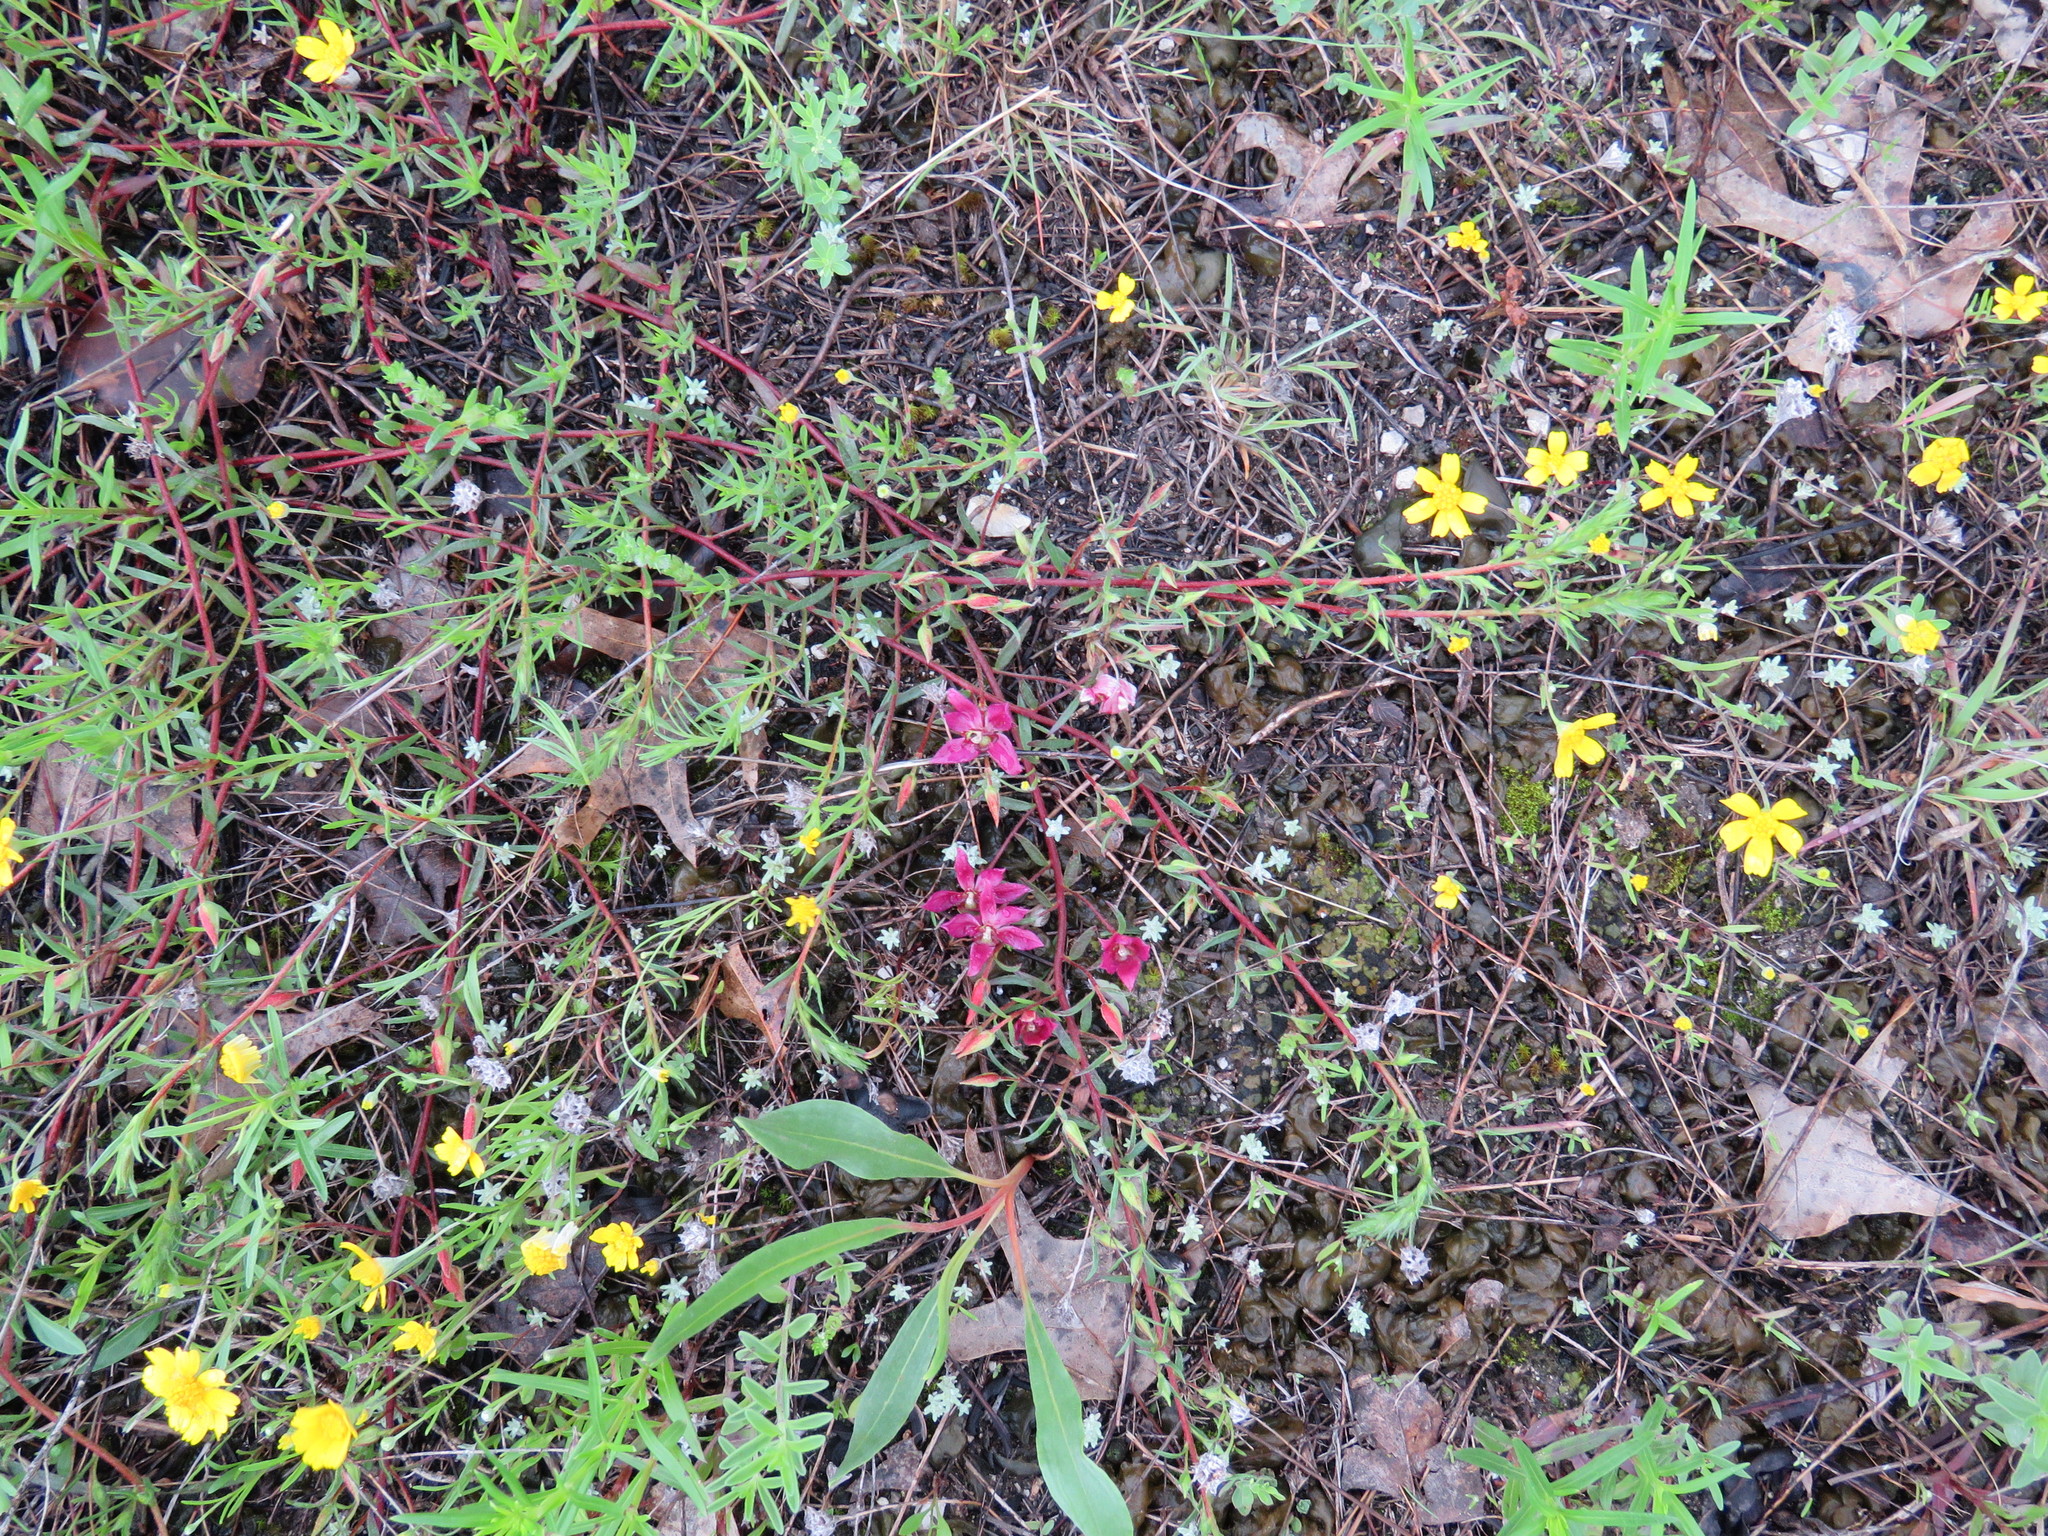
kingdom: Plantae
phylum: Tracheophyta
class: Magnoliopsida
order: Zygophyllales
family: Krameriaceae
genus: Krameria
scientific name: Krameria lanceolata
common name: Ratany
